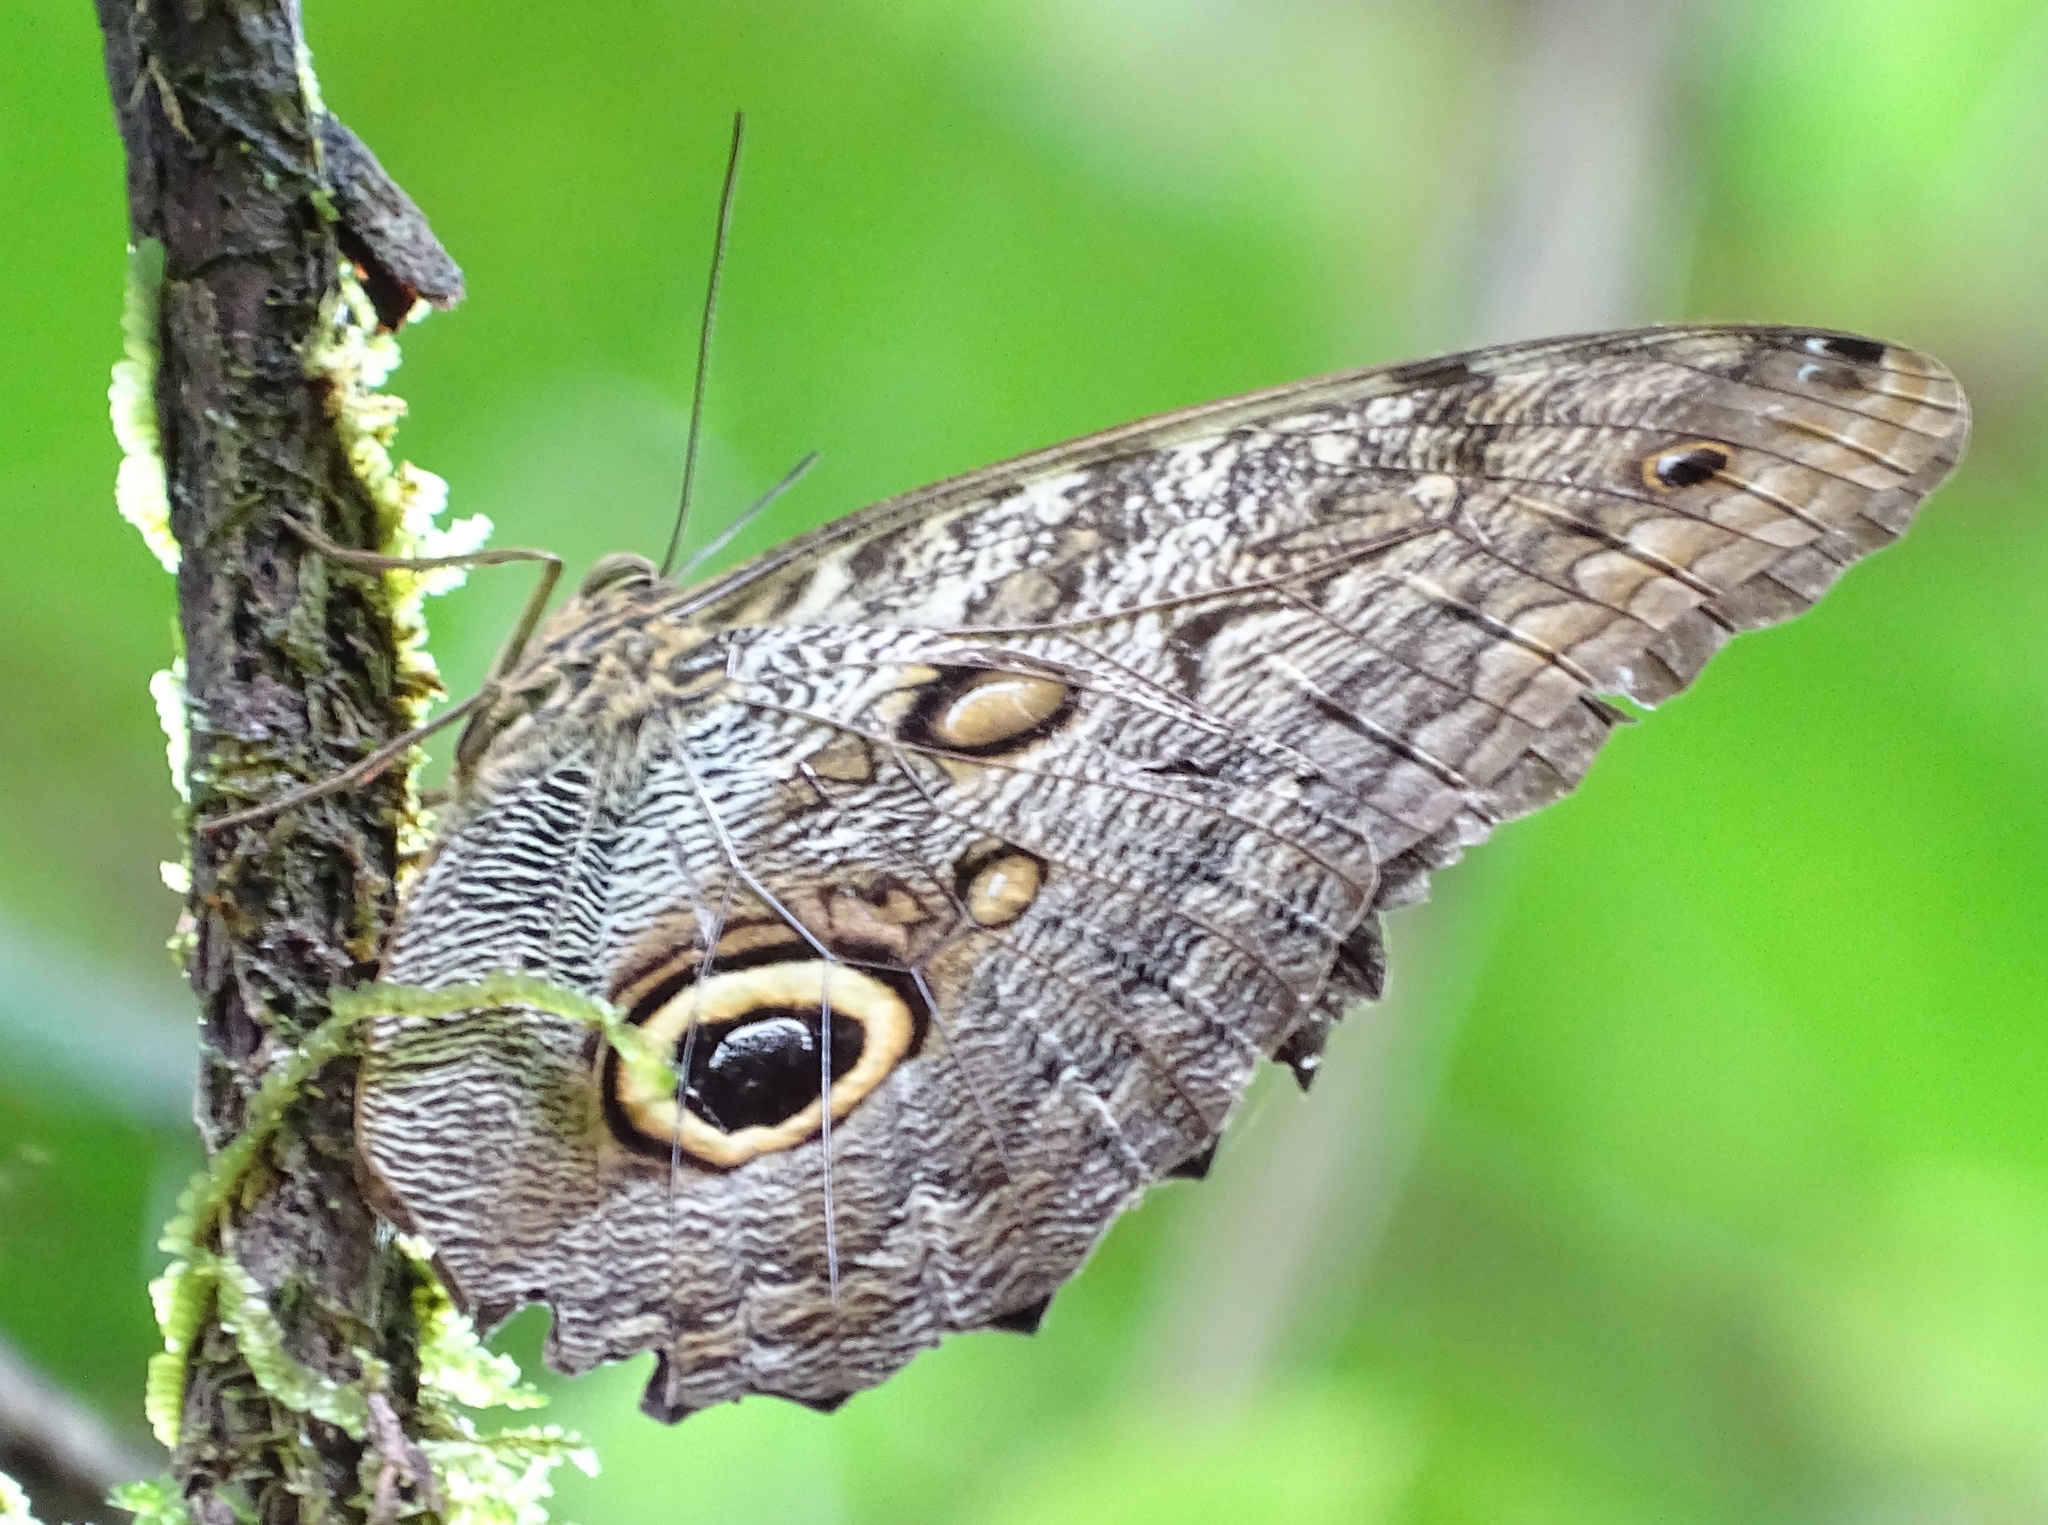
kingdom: Animalia
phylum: Arthropoda
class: Insecta
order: Lepidoptera
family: Nymphalidae
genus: Caligo
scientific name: Caligo telamonius
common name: Pale owl-butterfly
